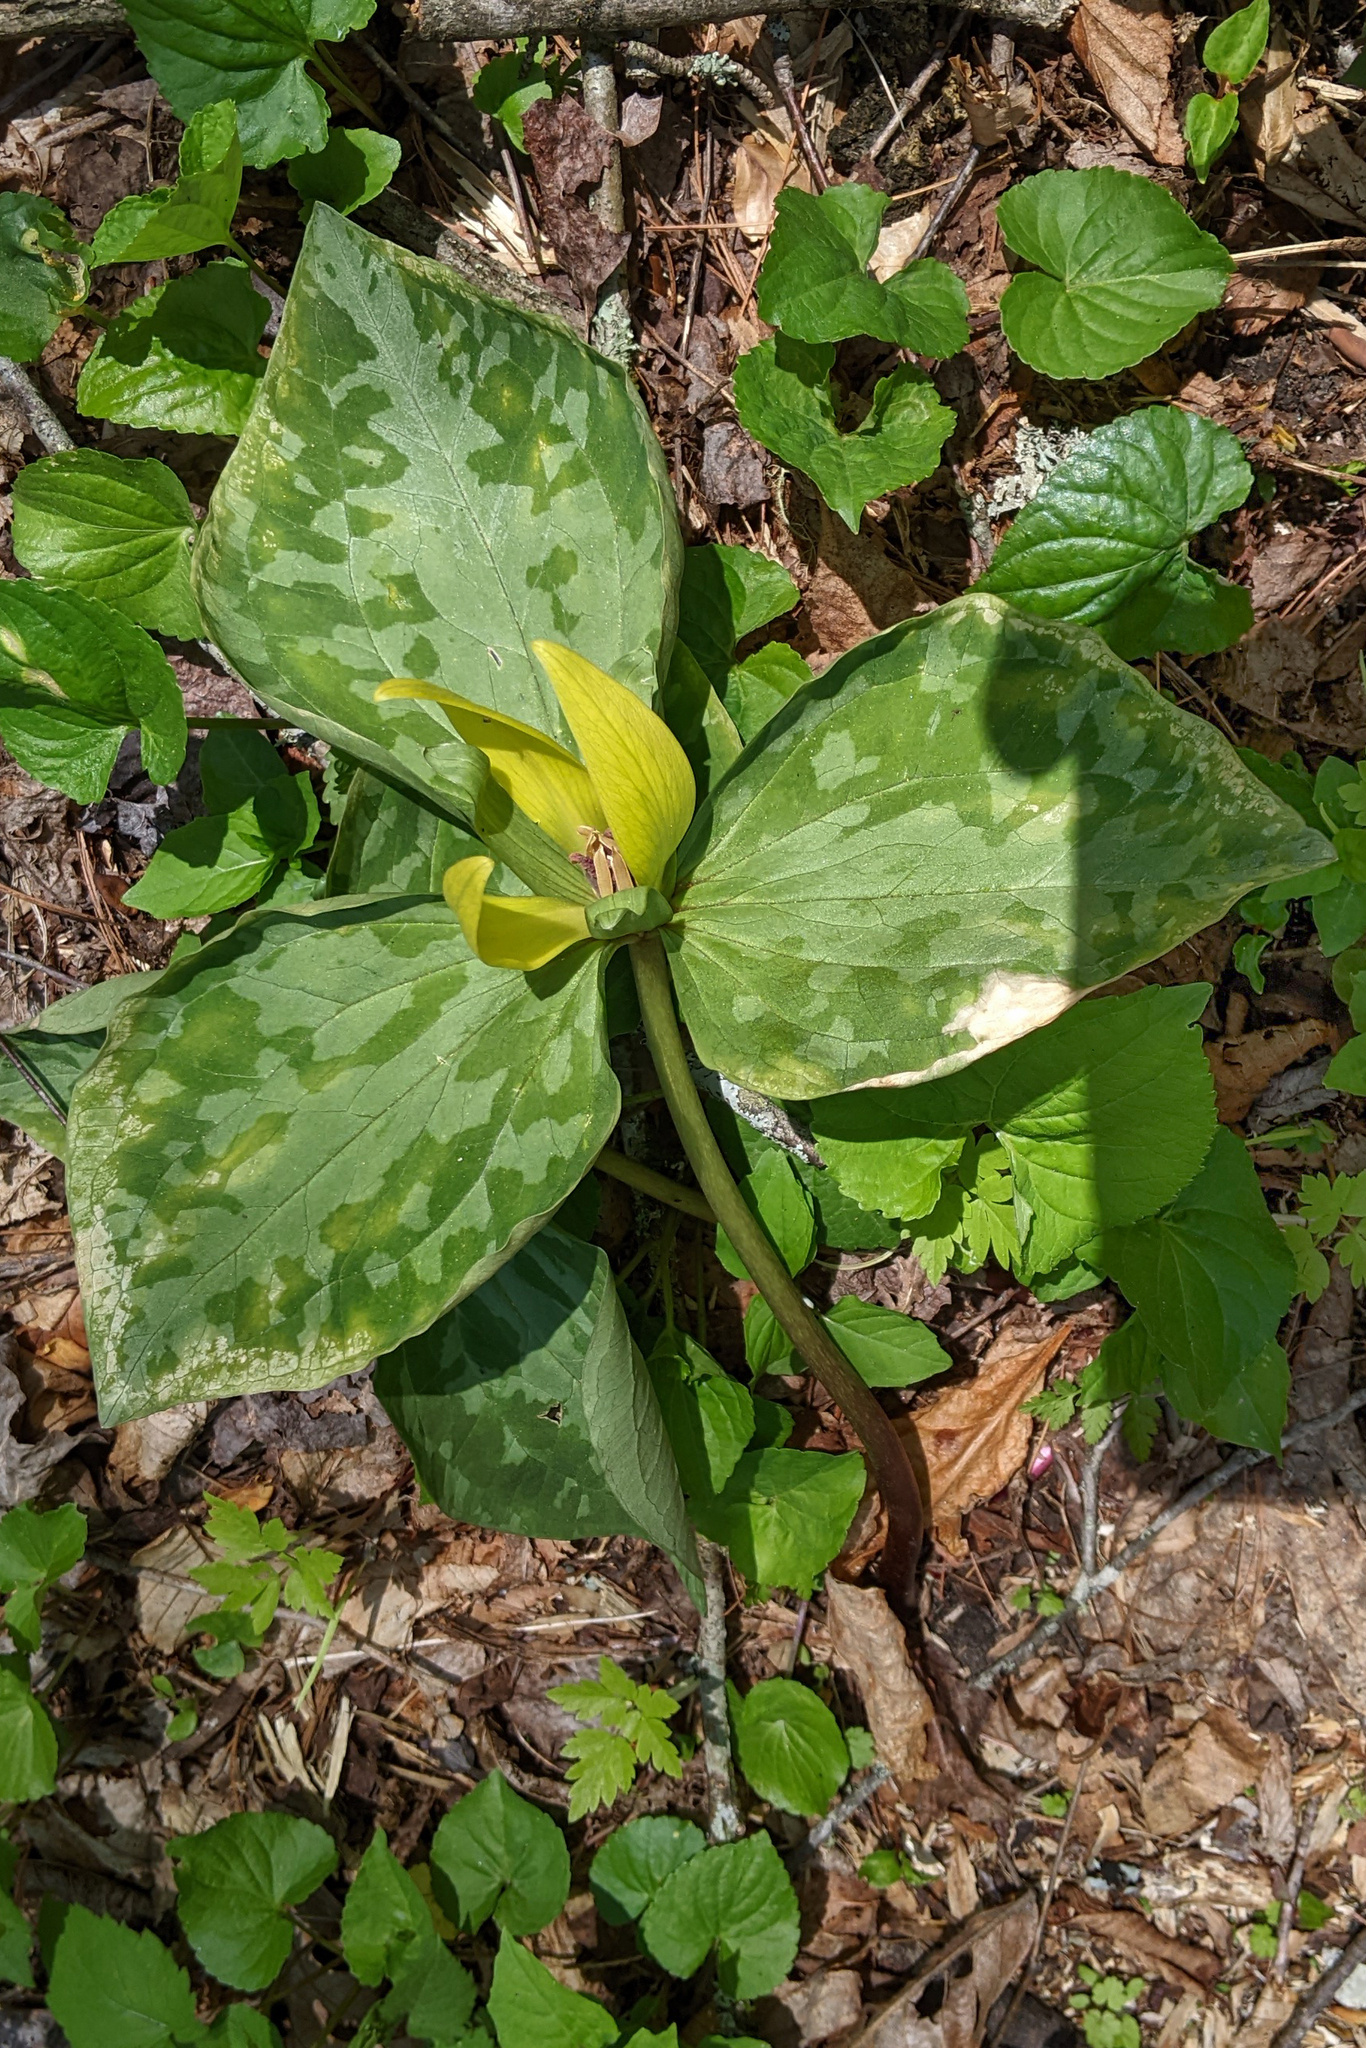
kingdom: Plantae
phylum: Tracheophyta
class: Liliopsida
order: Liliales
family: Melanthiaceae
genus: Trillium
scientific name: Trillium cuneatum
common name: Cuneate trillium
